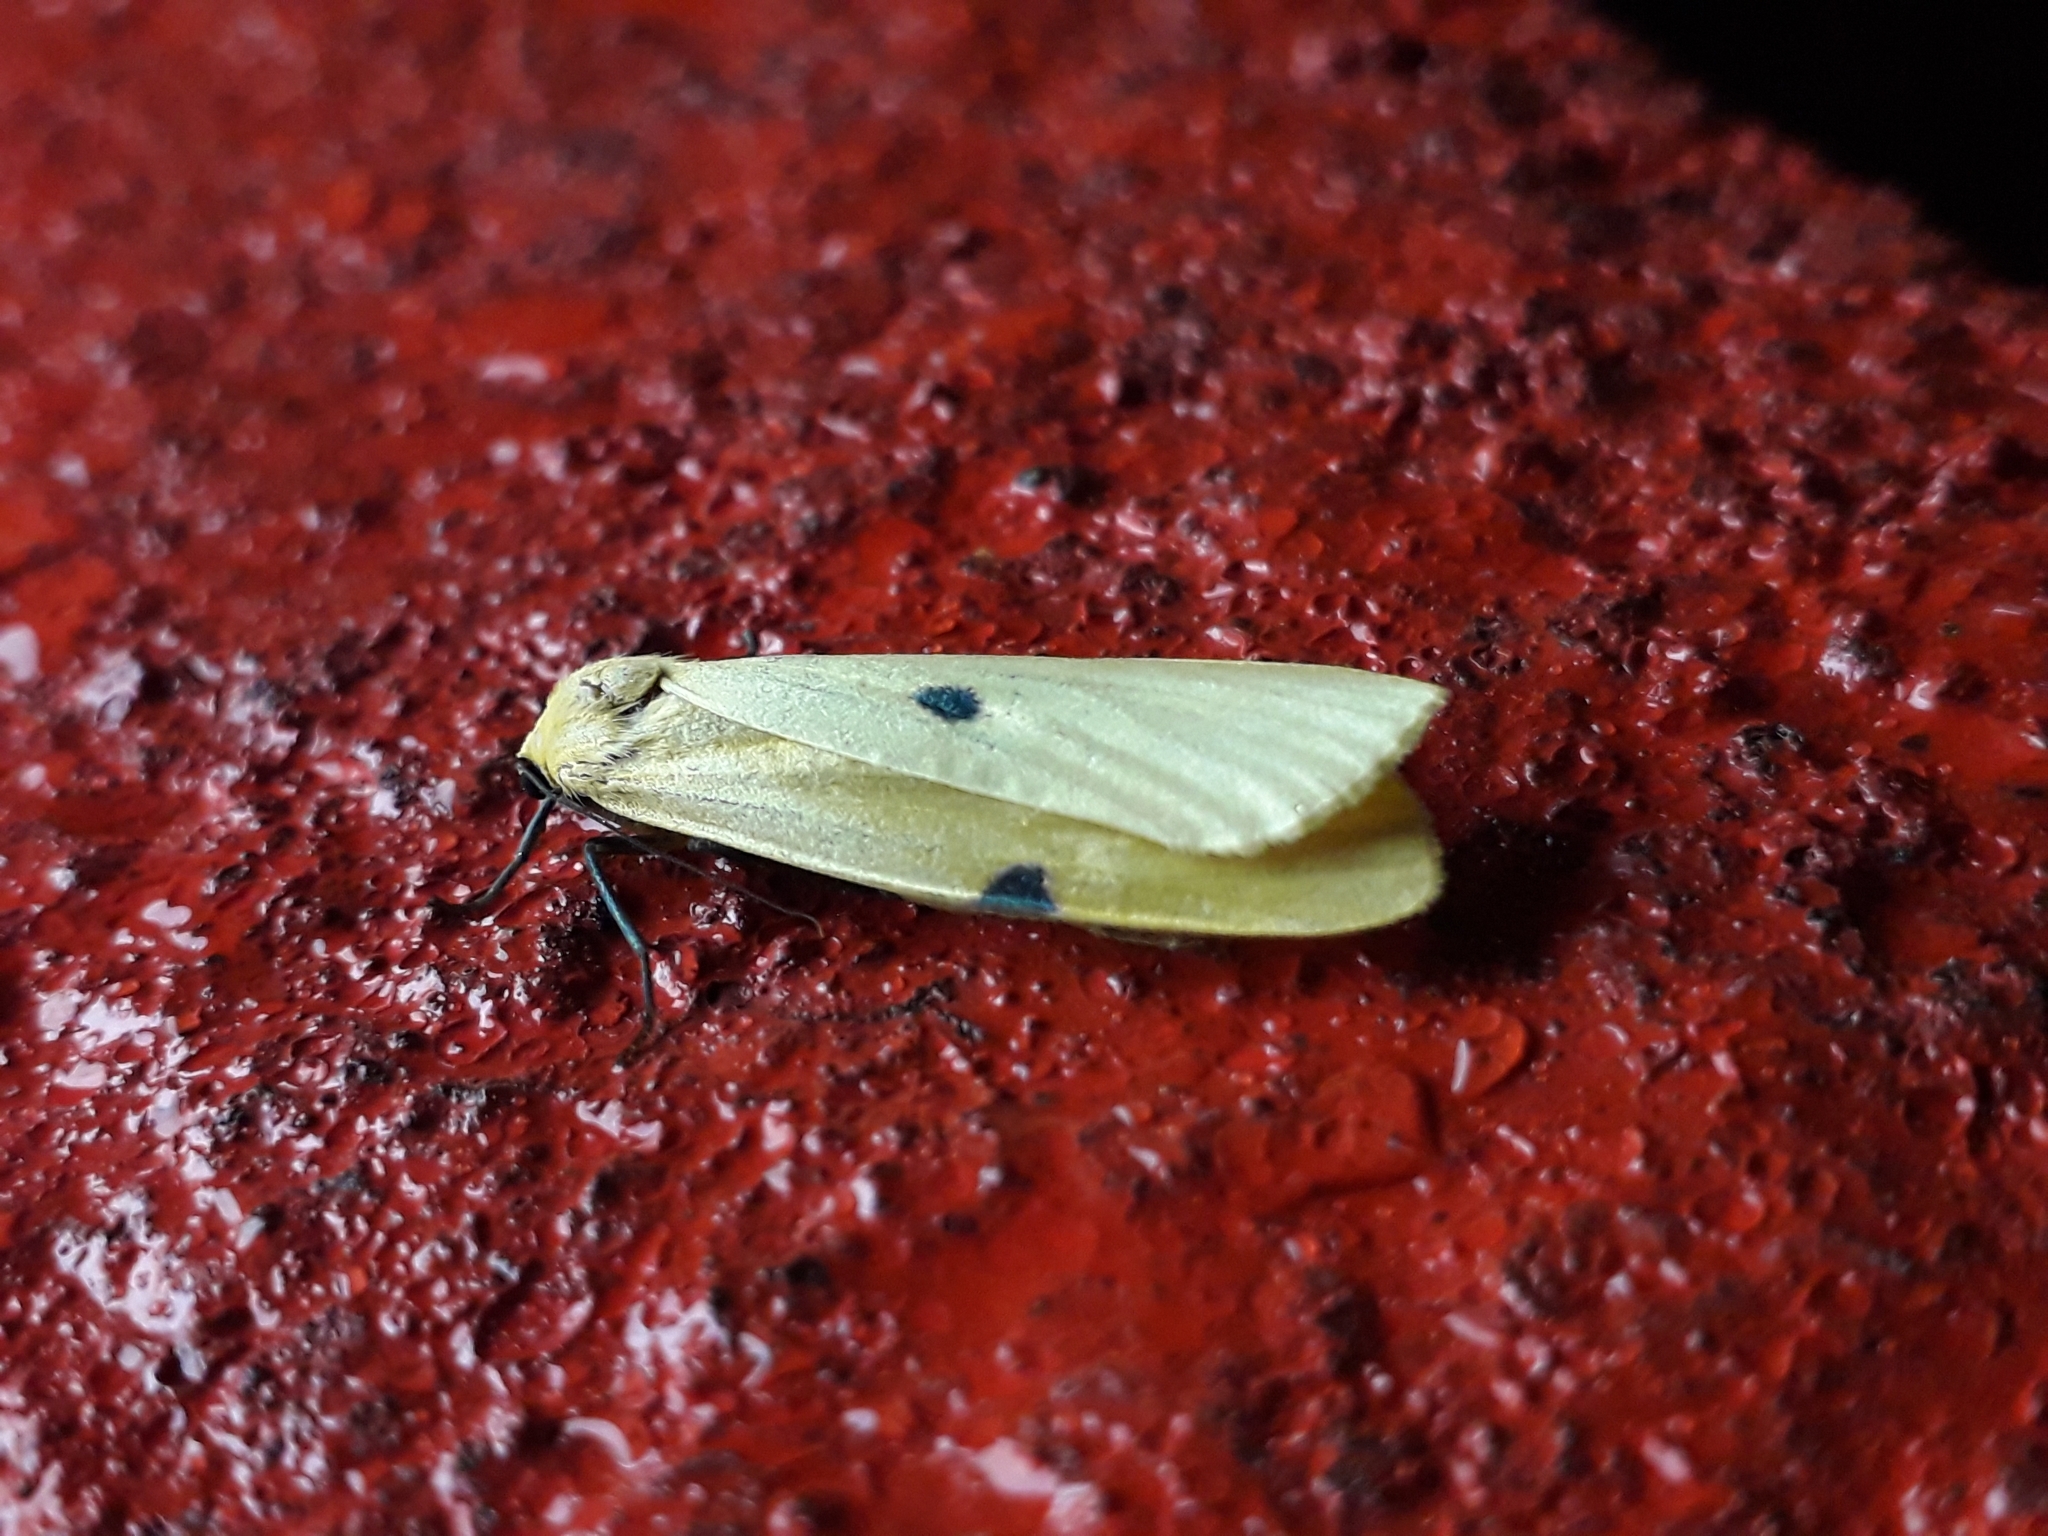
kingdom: Animalia
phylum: Arthropoda
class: Insecta
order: Lepidoptera
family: Erebidae
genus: Lithosia
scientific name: Lithosia quadra
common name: Four-spotted footman
